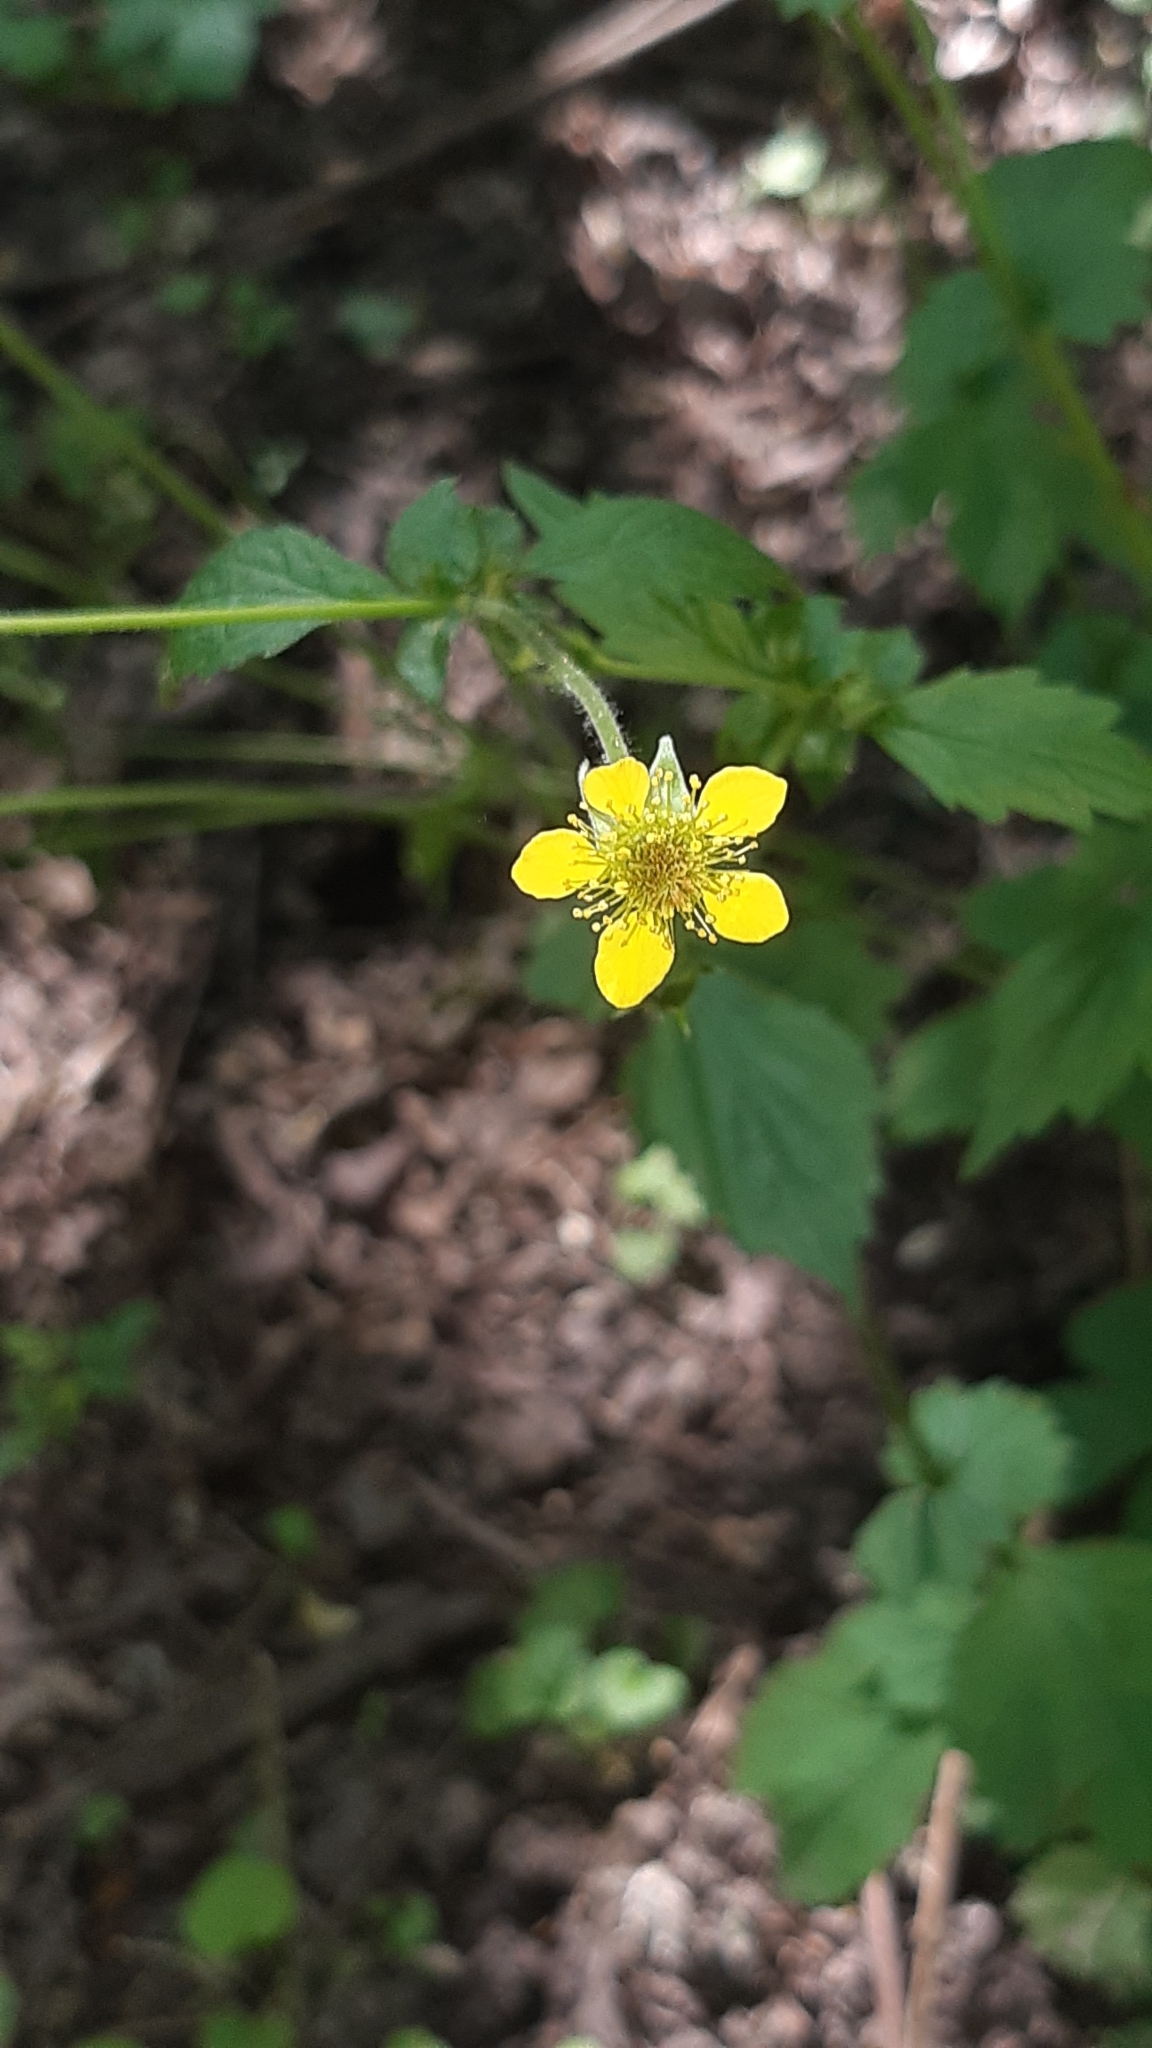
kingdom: Plantae
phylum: Tracheophyta
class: Magnoliopsida
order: Rosales
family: Rosaceae
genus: Geum
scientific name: Geum urbanum
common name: Wood avens
